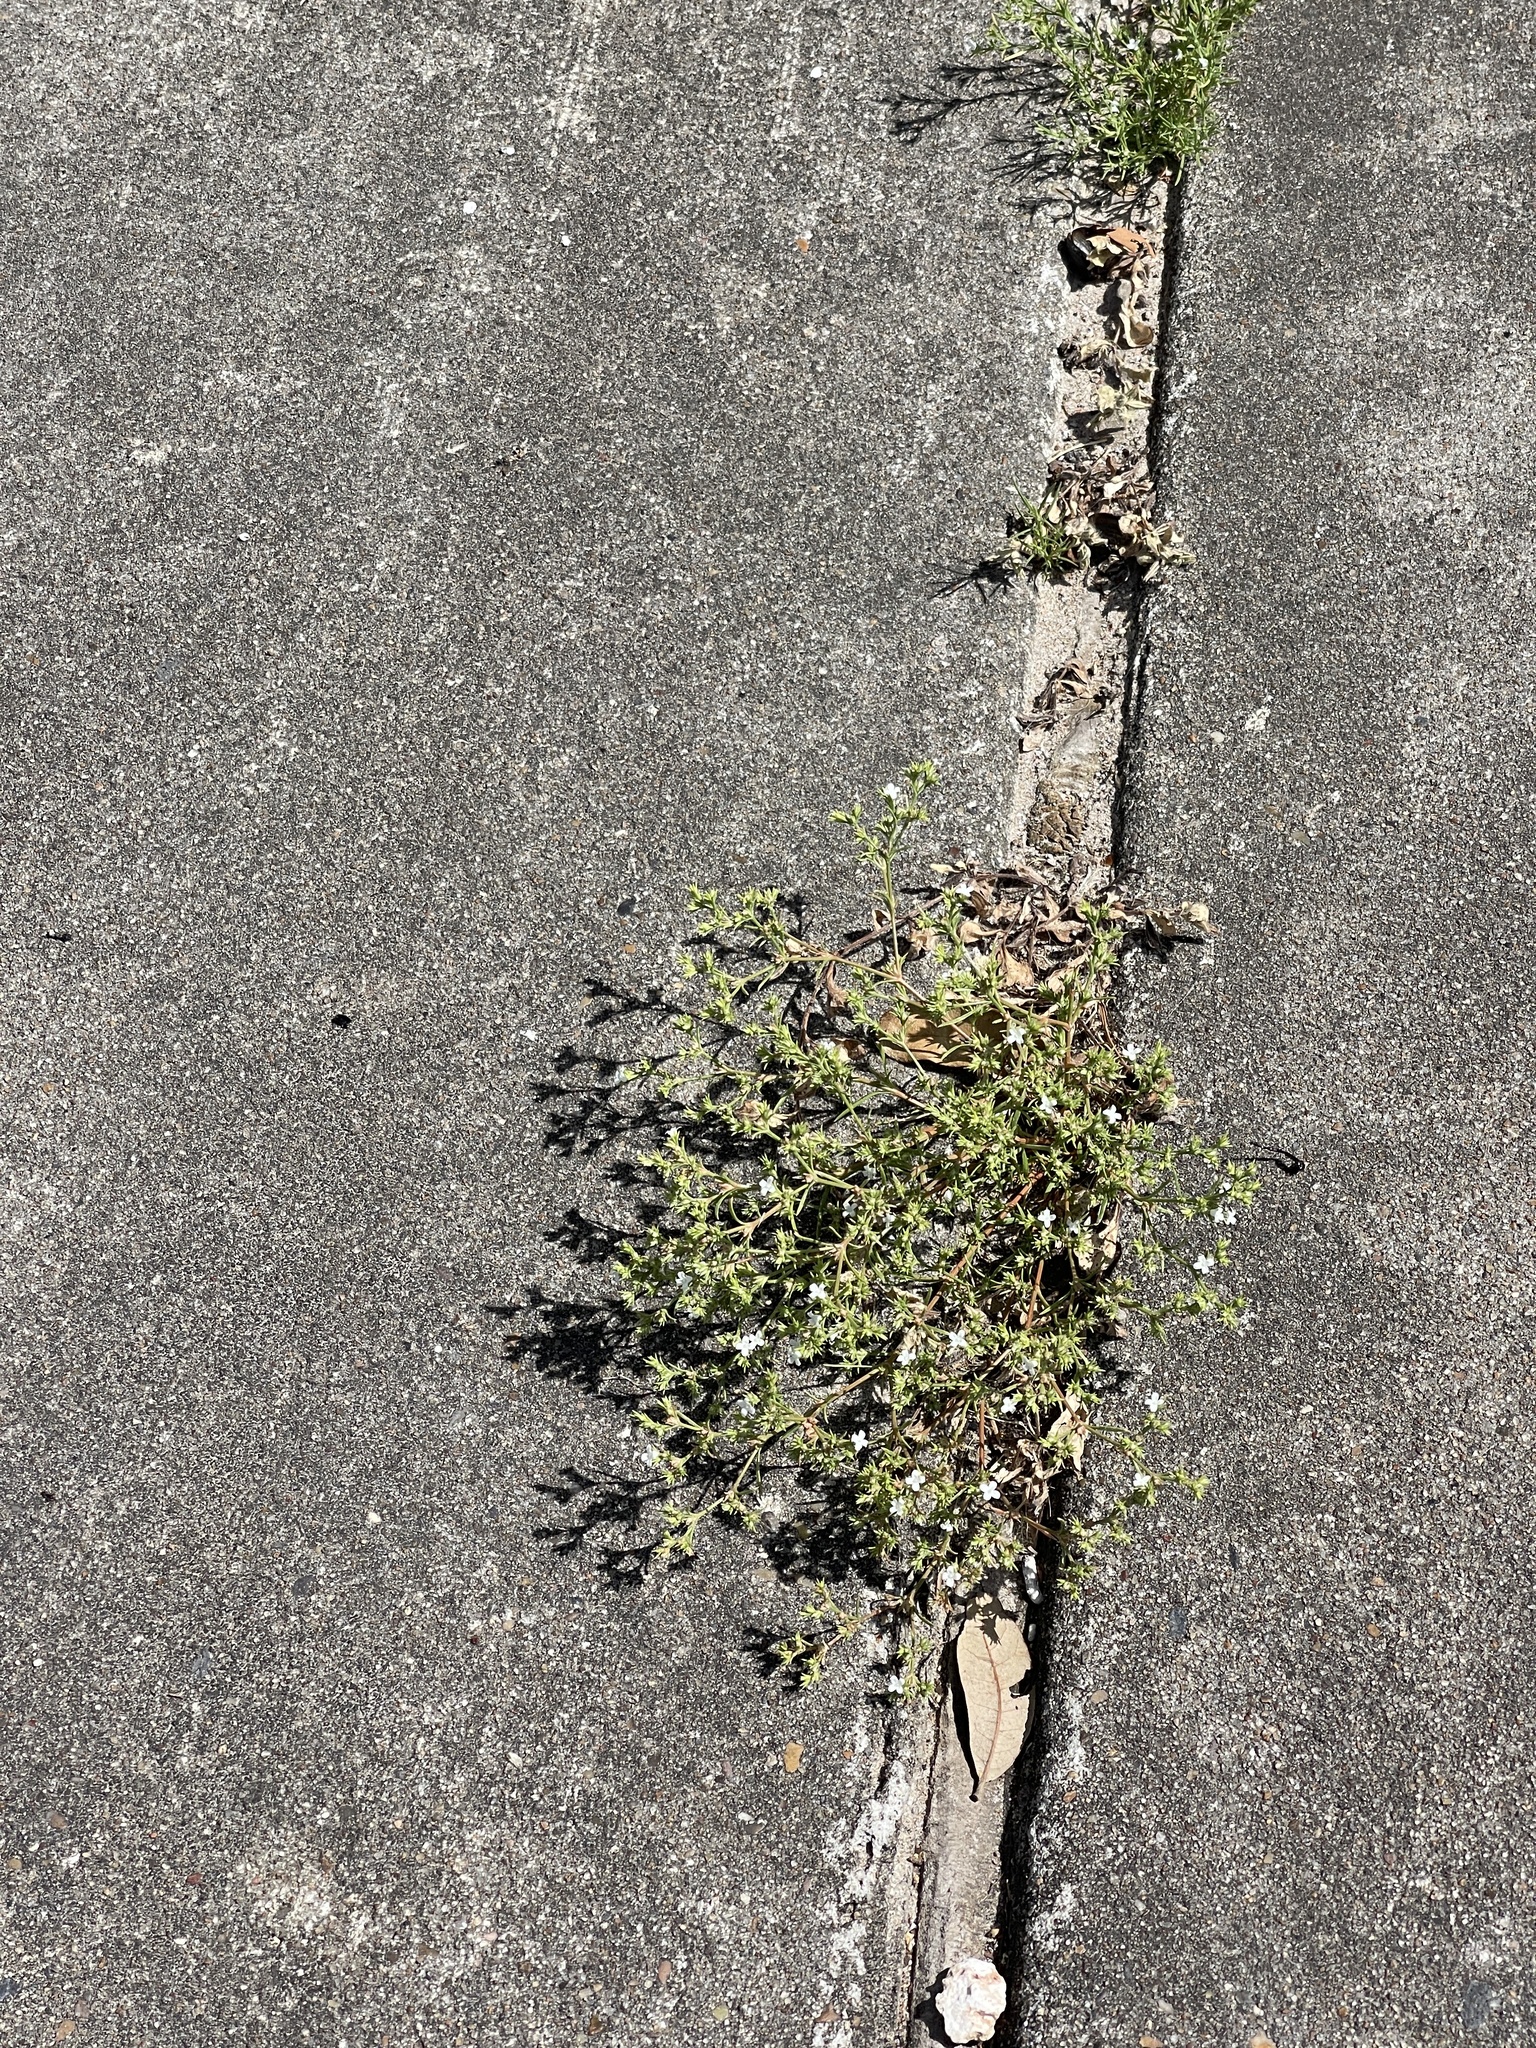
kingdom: Plantae
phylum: Tracheophyta
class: Magnoliopsida
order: Lamiales
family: Tetrachondraceae
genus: Polypremum
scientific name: Polypremum procumbens
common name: Juniper-leaf
